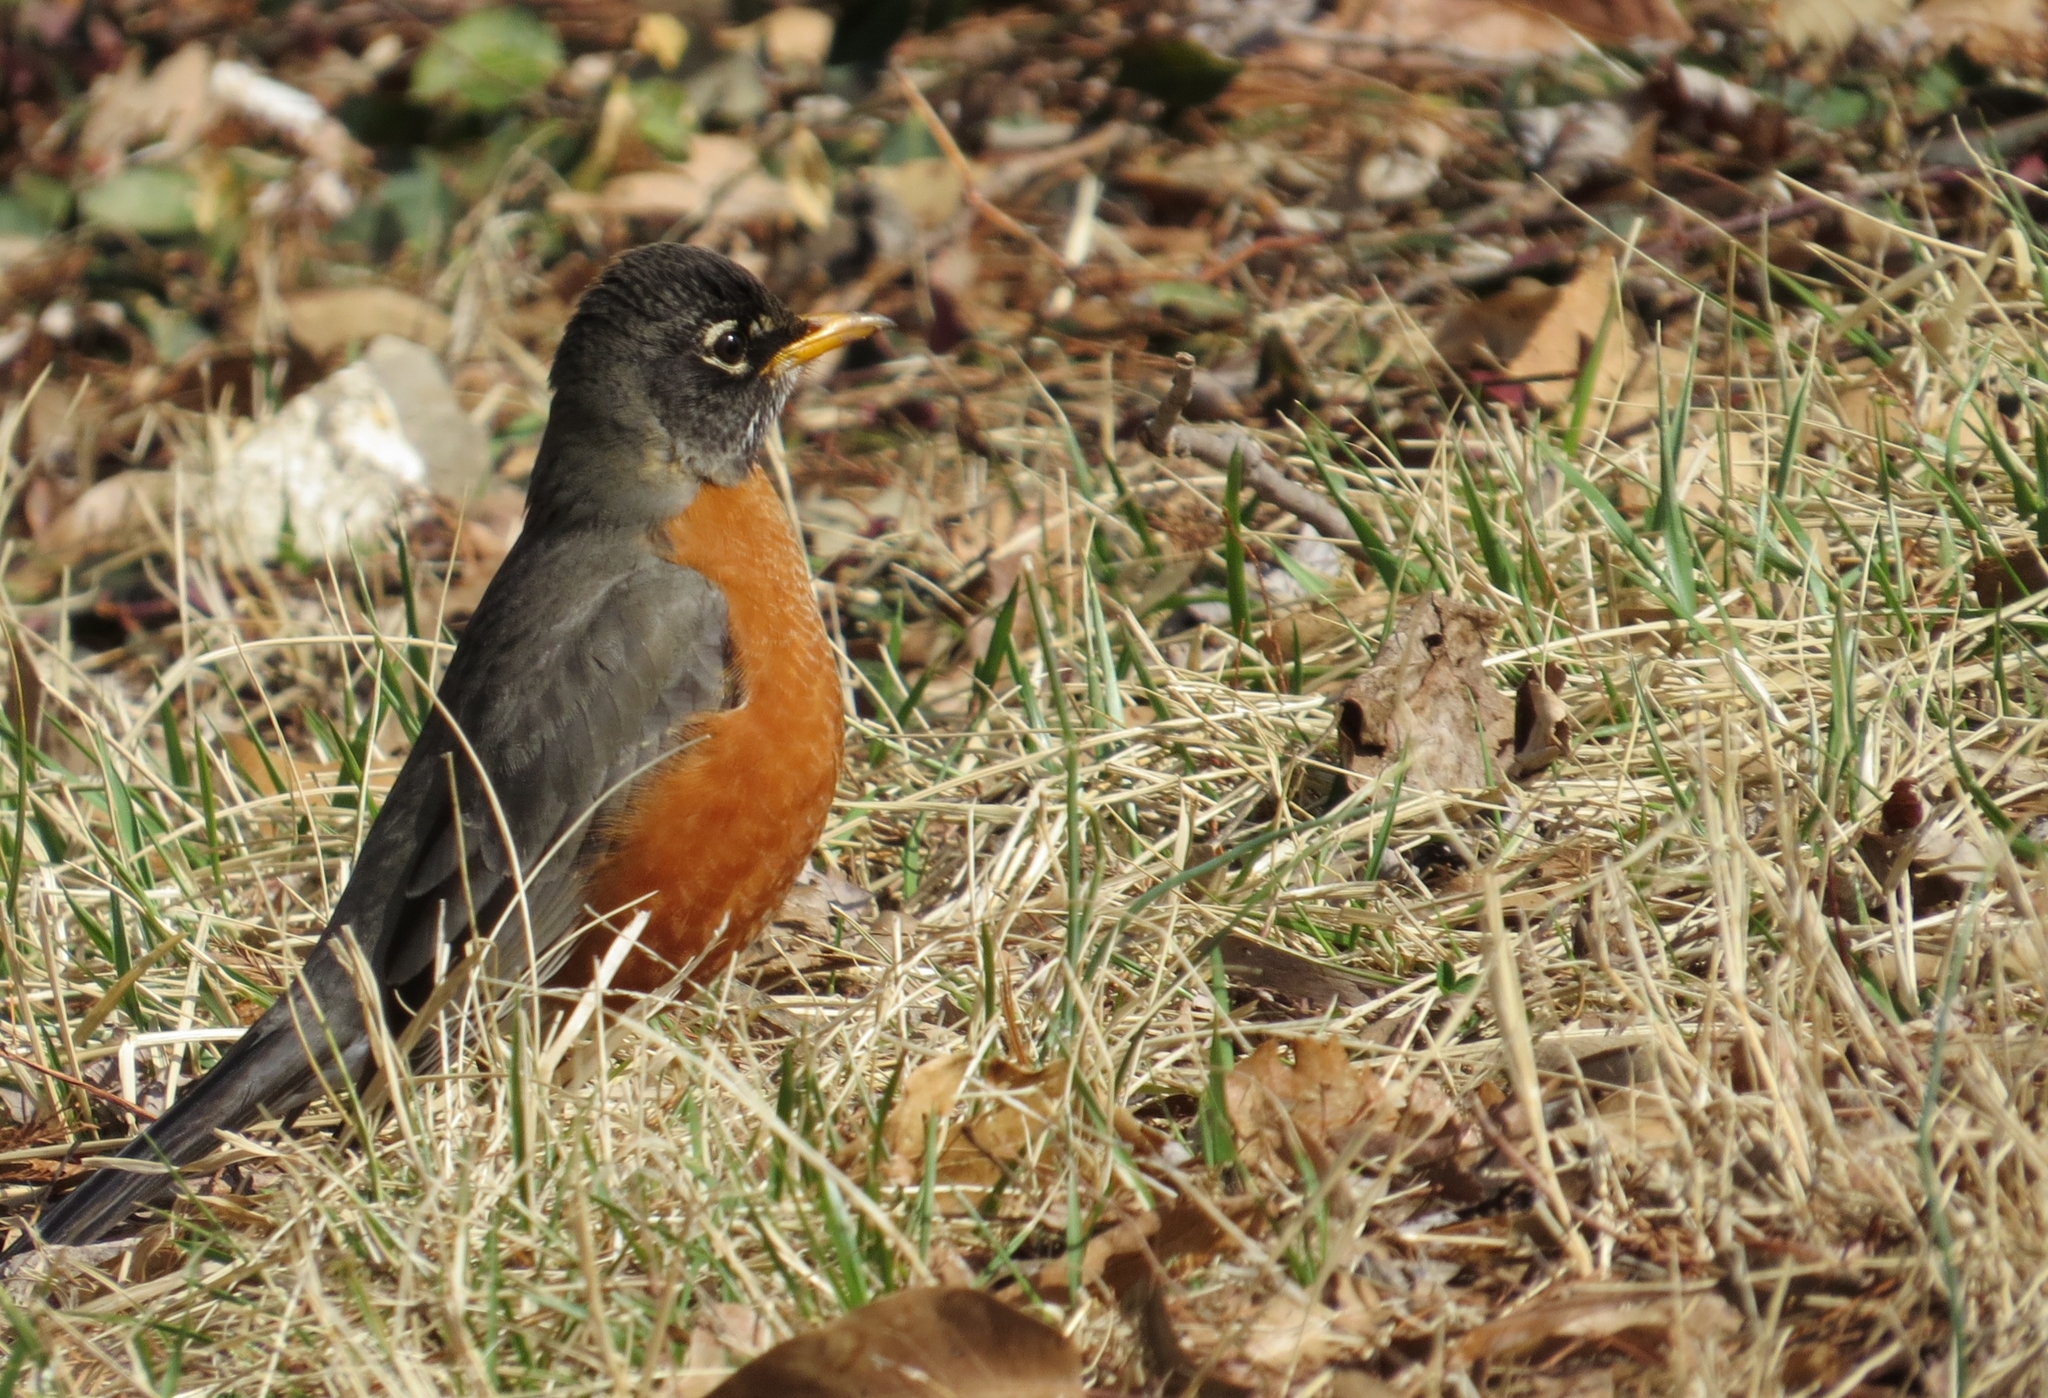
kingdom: Animalia
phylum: Chordata
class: Aves
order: Passeriformes
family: Turdidae
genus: Turdus
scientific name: Turdus migratorius
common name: American robin
